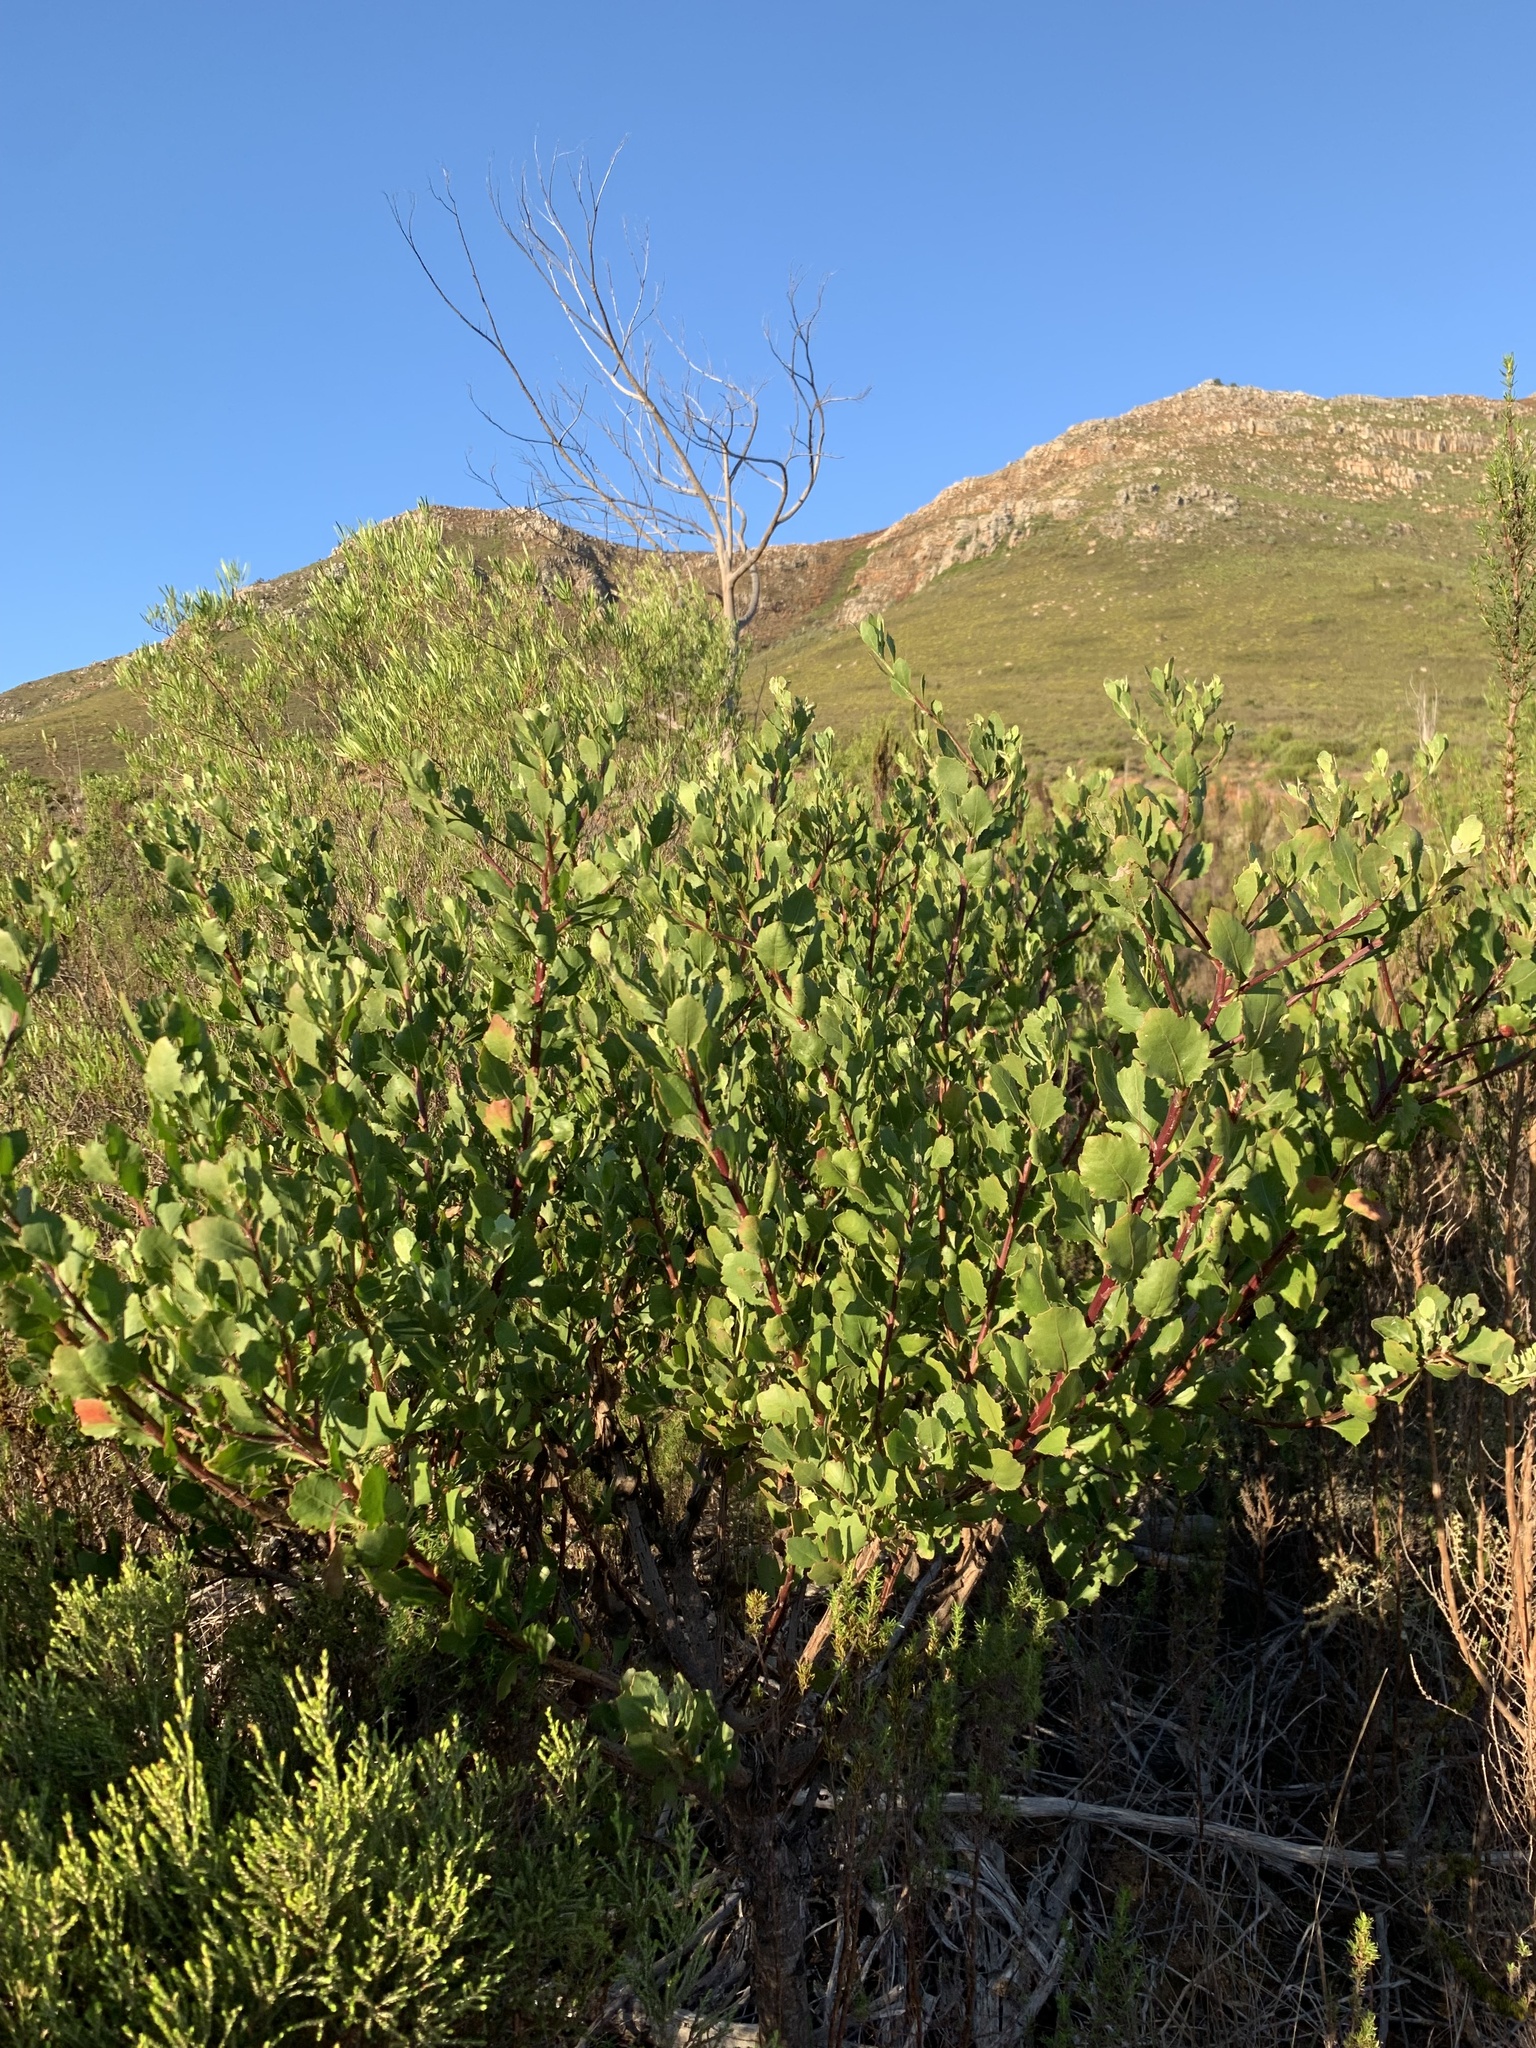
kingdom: Plantae
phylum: Tracheophyta
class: Magnoliopsida
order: Asterales
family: Asteraceae
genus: Osteospermum
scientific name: Osteospermum moniliferum
